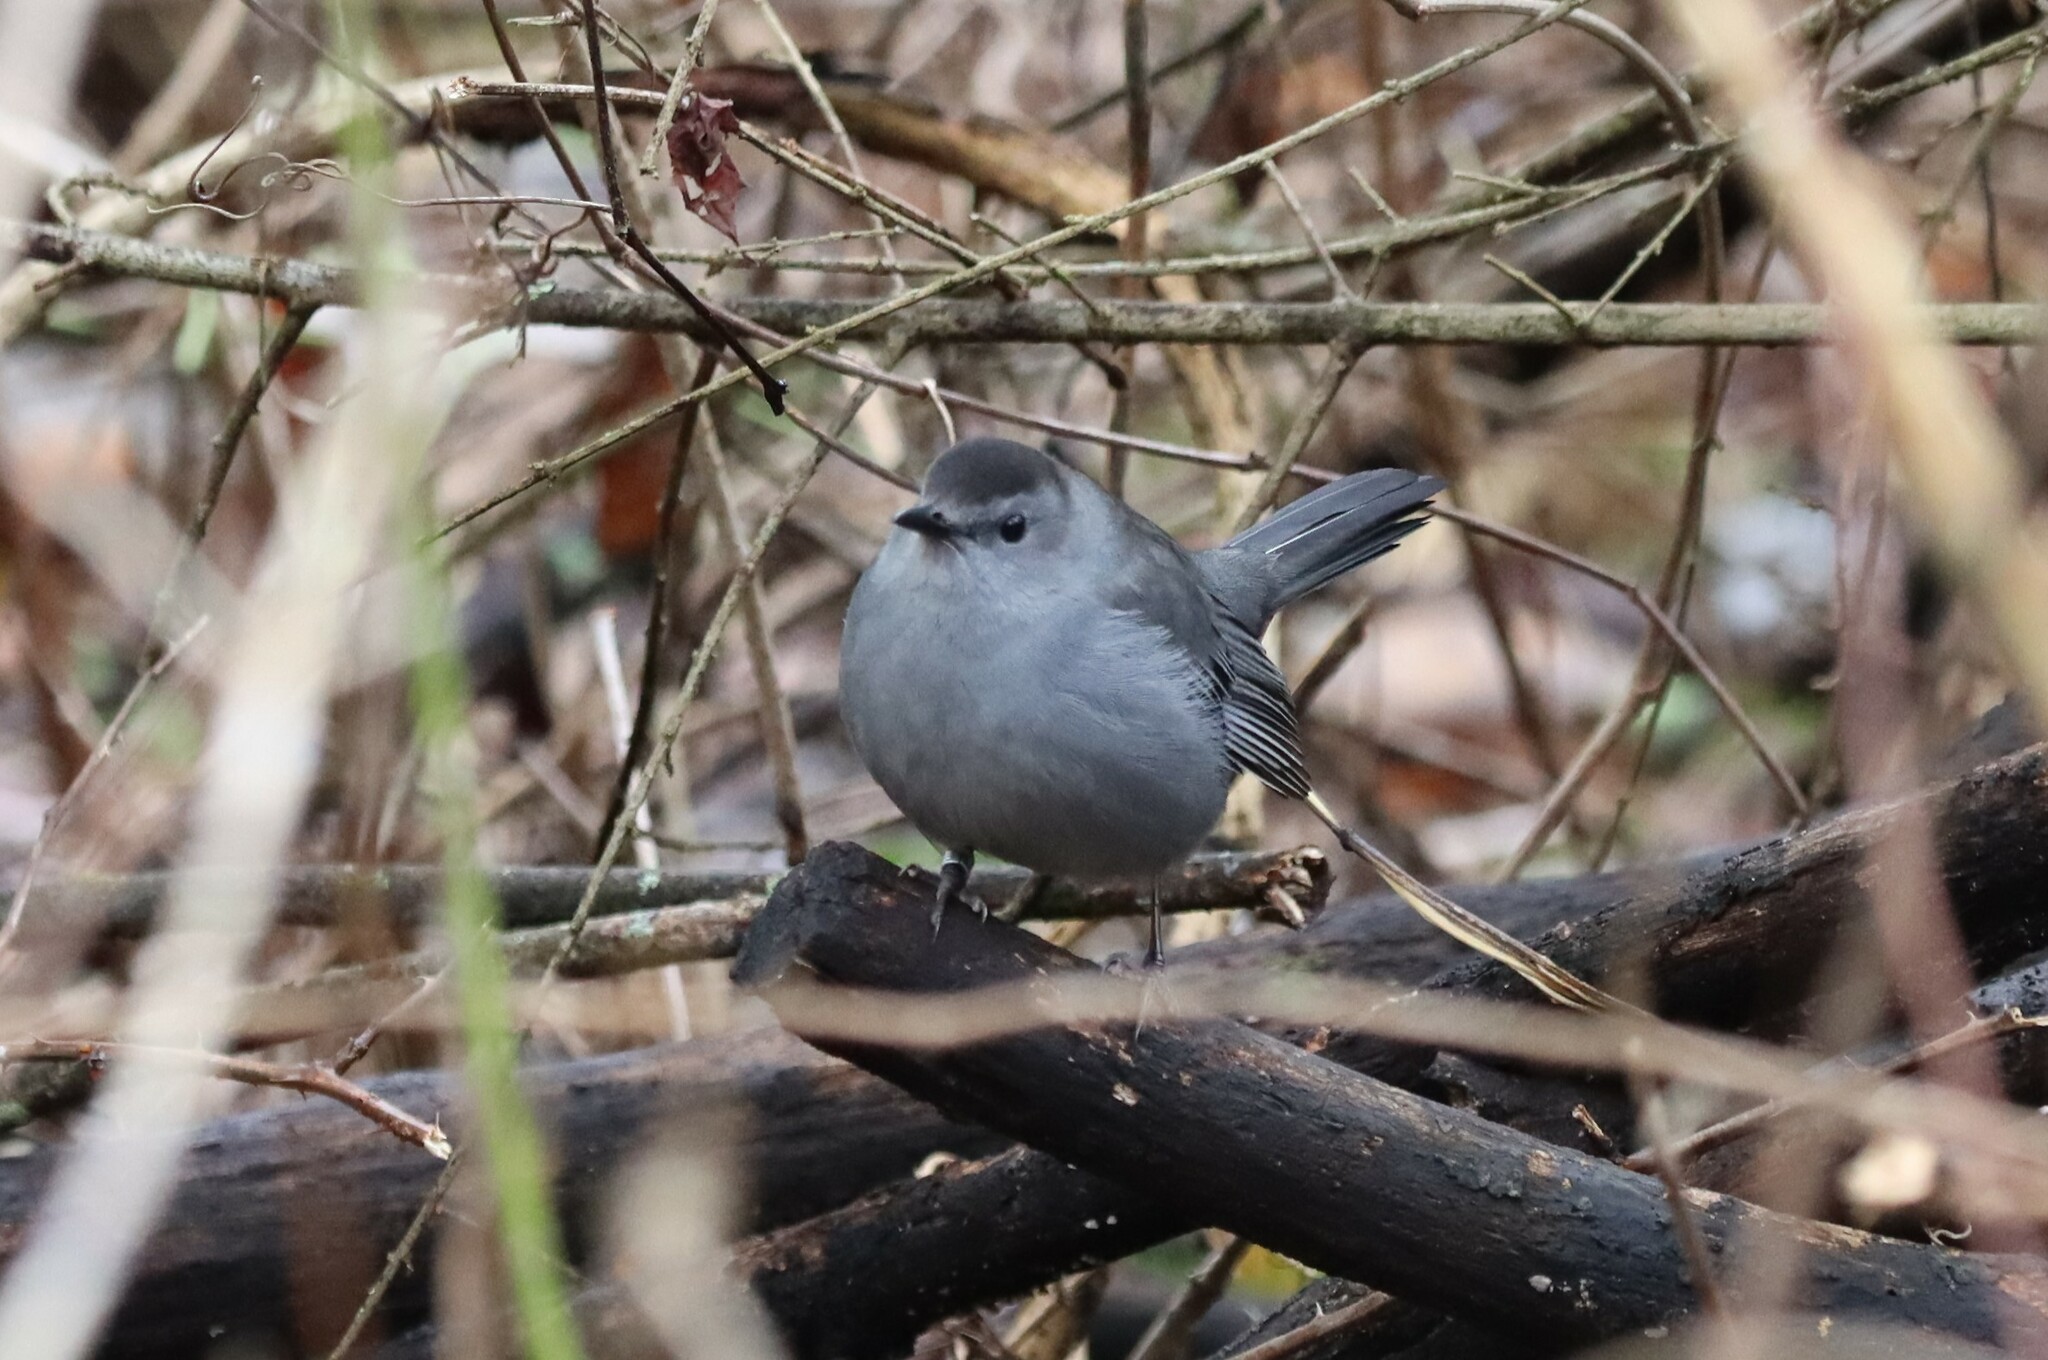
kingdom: Animalia
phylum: Chordata
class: Aves
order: Passeriformes
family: Mimidae
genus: Dumetella
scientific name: Dumetella carolinensis
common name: Gray catbird
